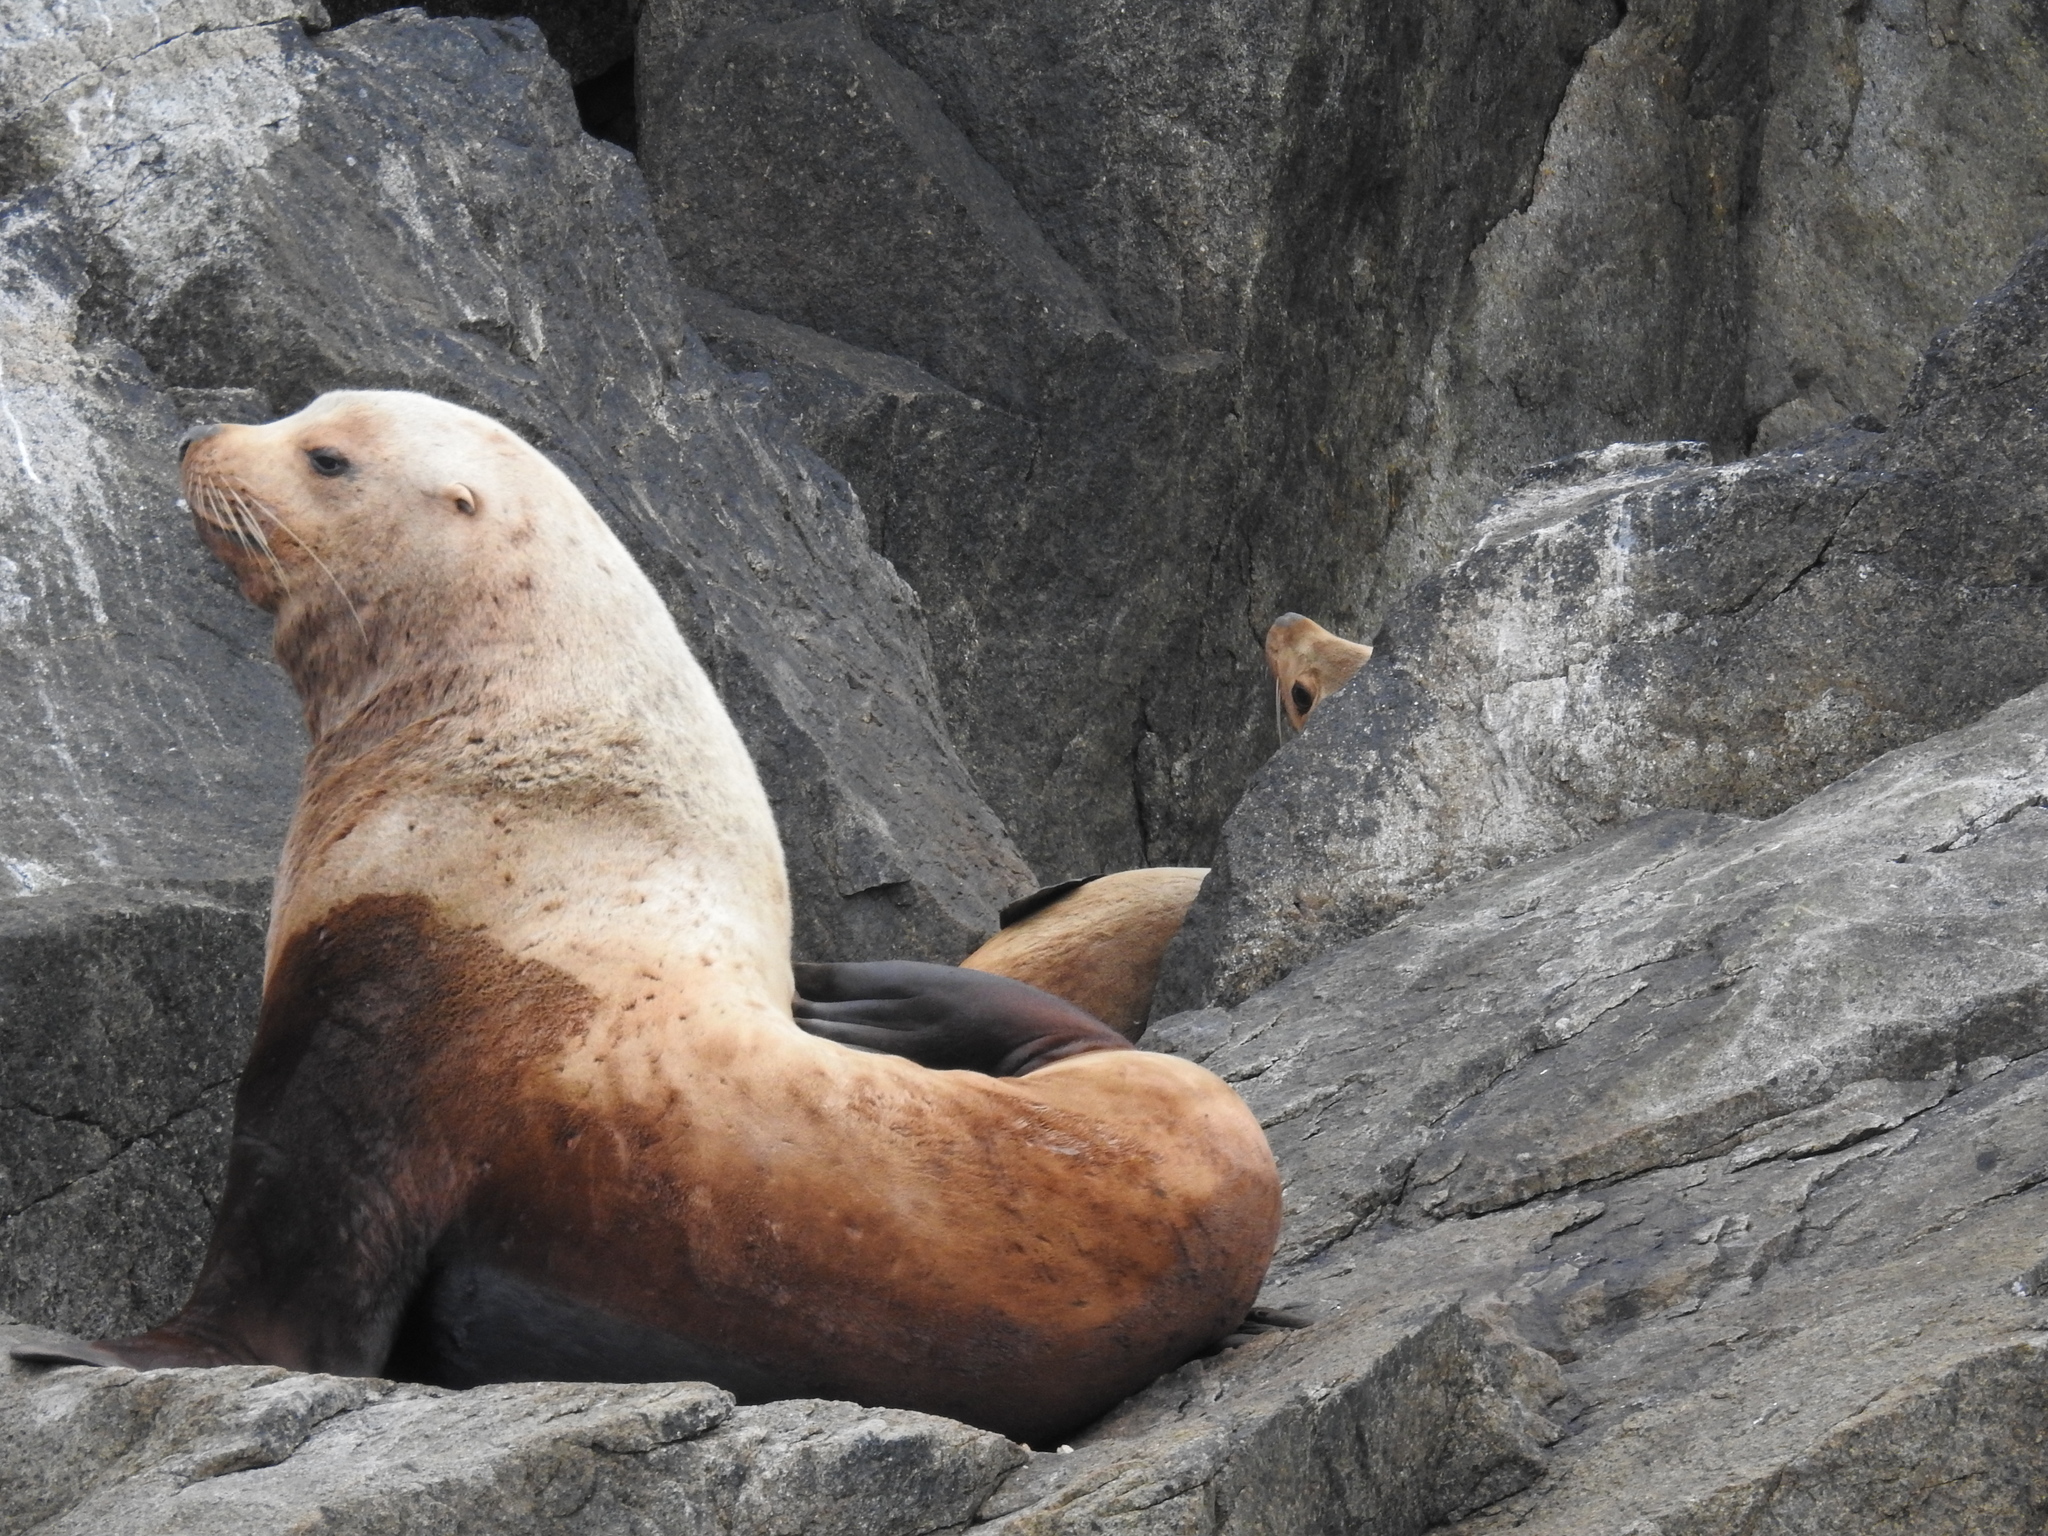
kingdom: Animalia
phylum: Chordata
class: Mammalia
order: Carnivora
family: Otariidae
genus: Eumetopias
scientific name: Eumetopias jubatus
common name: Steller sea lion
